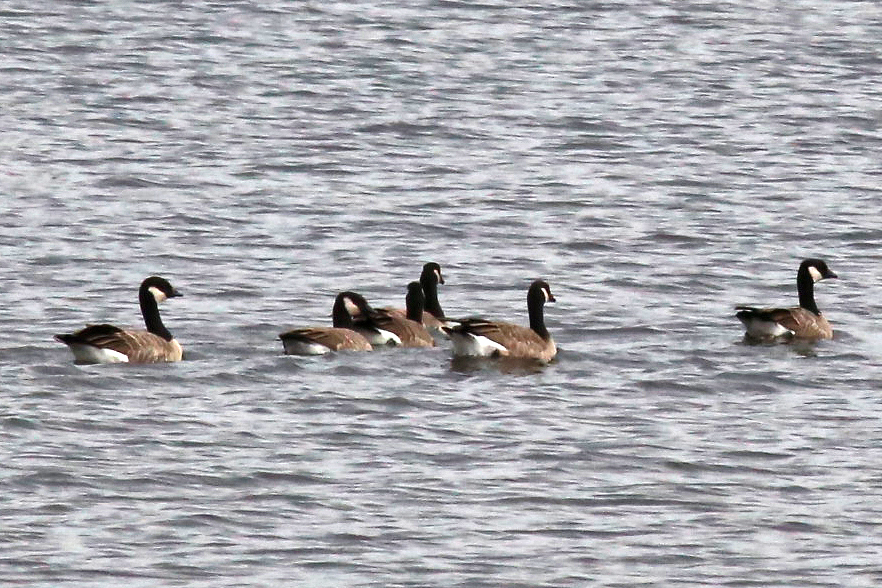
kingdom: Animalia
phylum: Chordata
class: Aves
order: Anseriformes
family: Anatidae
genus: Branta
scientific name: Branta hutchinsii
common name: Cackling goose
